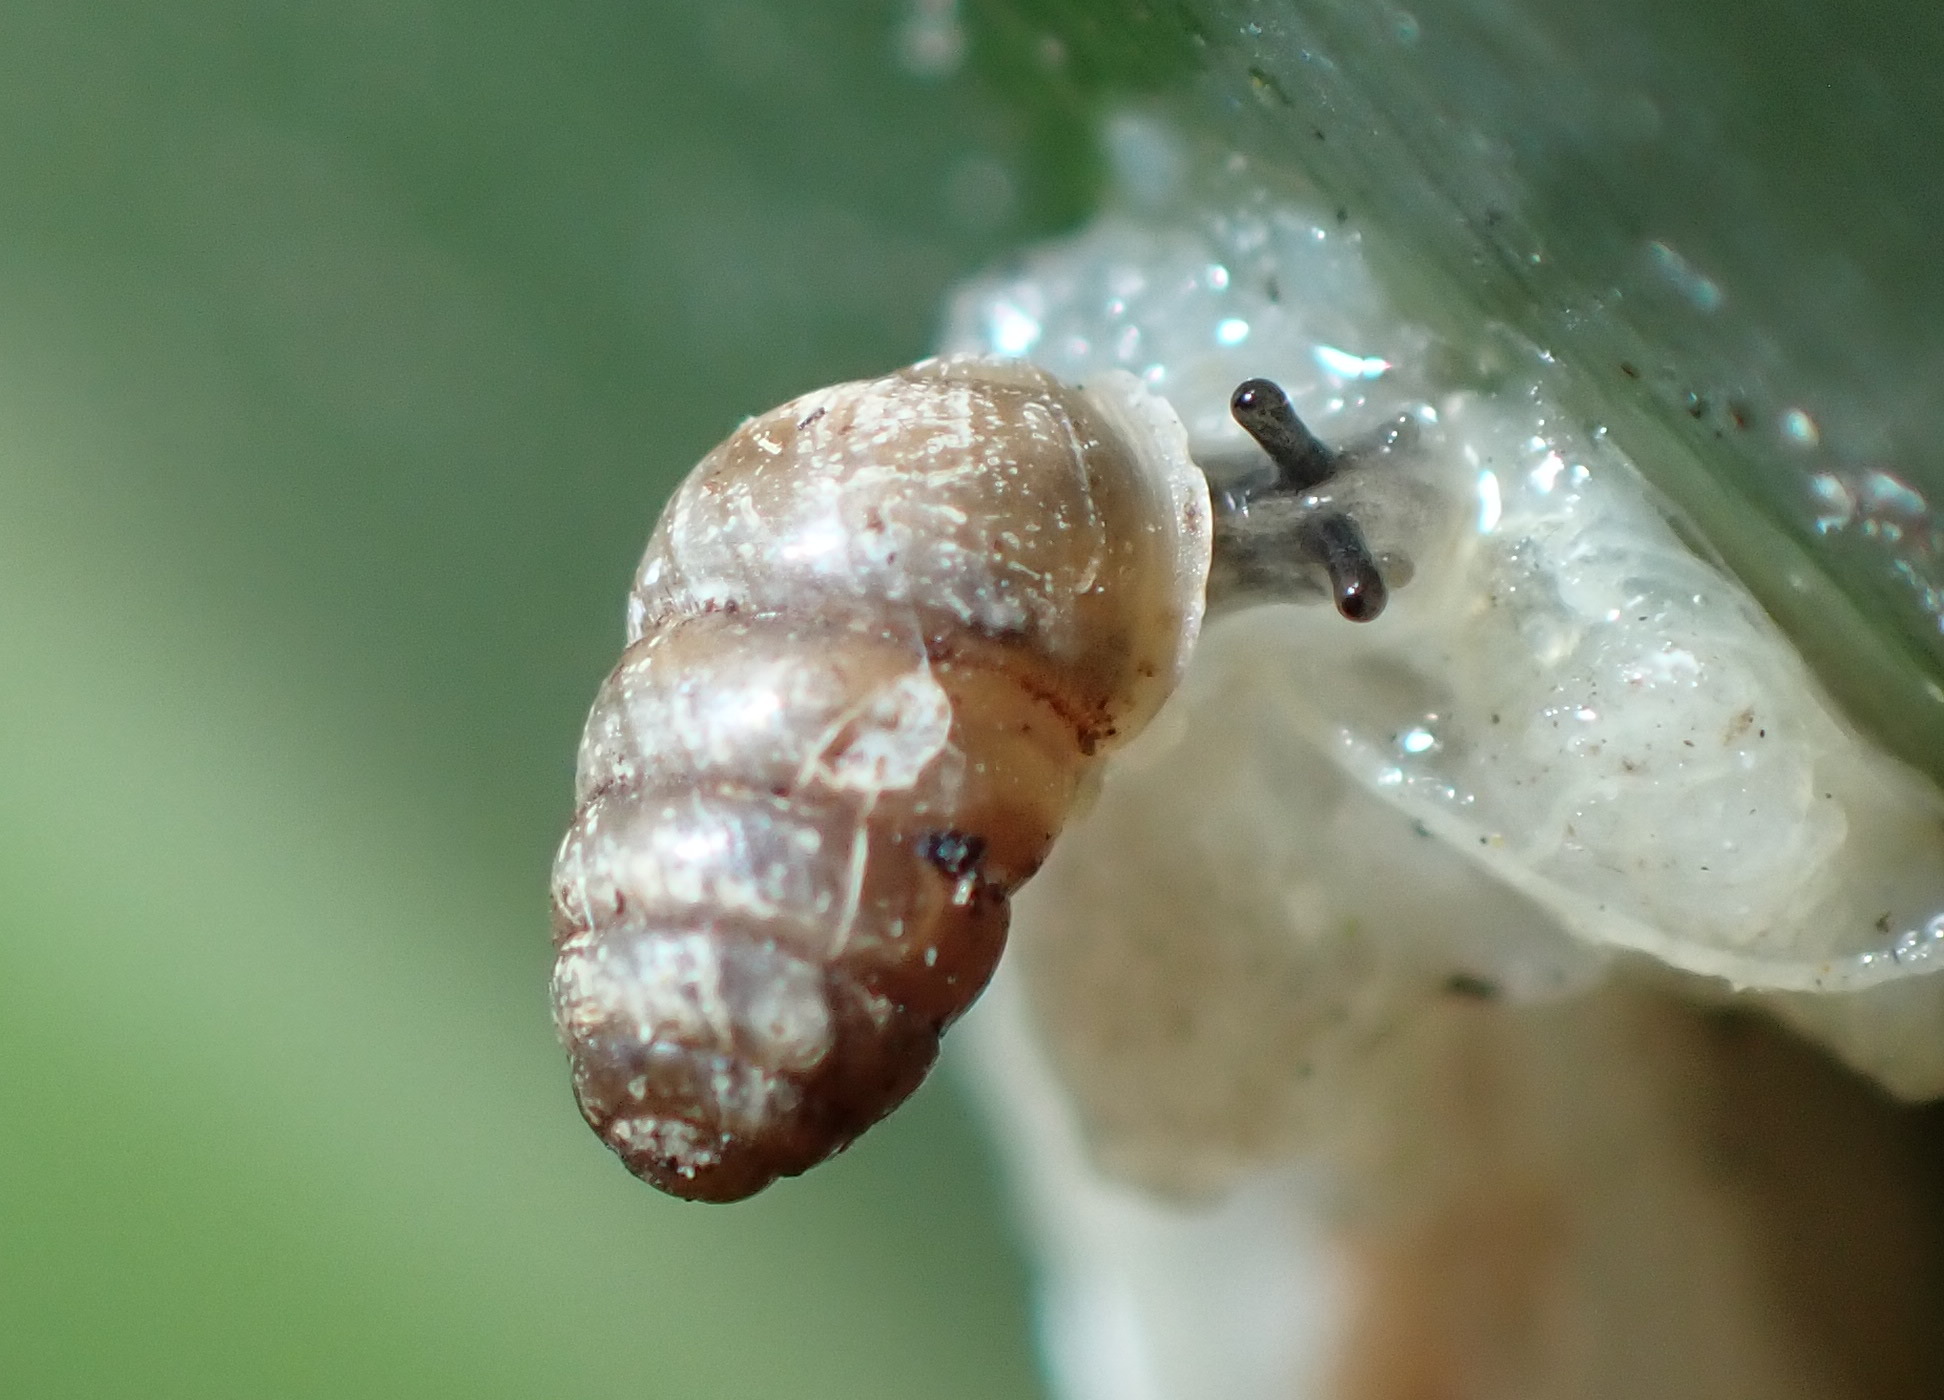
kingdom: Animalia
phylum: Mollusca
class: Gastropoda
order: Stylommatophora
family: Lauriidae
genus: Lauria
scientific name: Lauria cylindracea
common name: Common chrysalis snail
